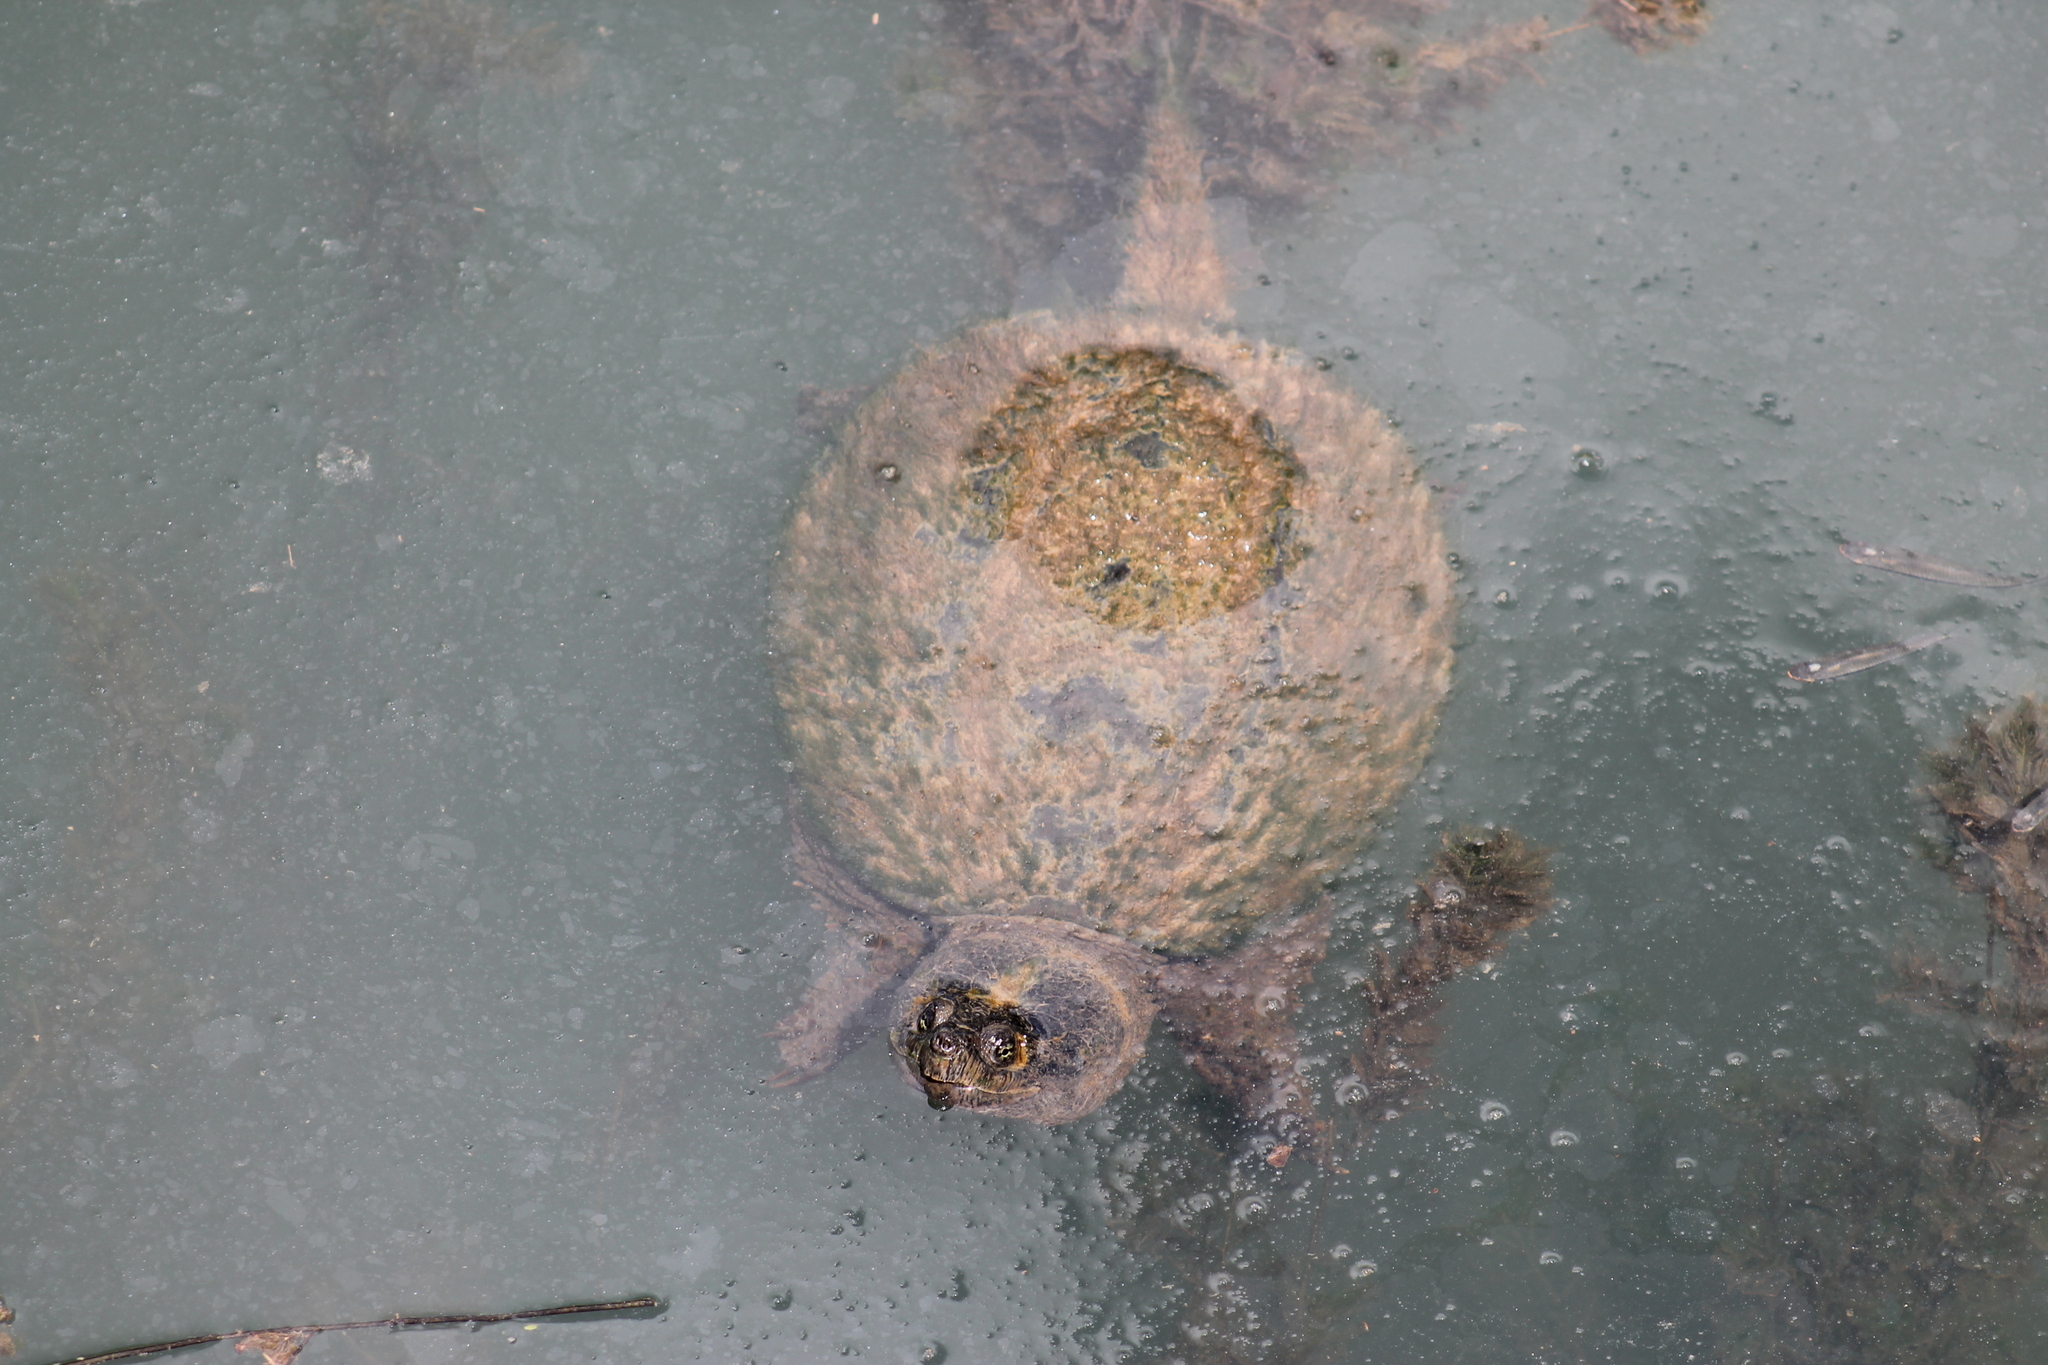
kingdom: Animalia
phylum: Chordata
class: Testudines
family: Chelydridae
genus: Chelydra
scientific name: Chelydra serpentina
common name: Common snapping turtle
